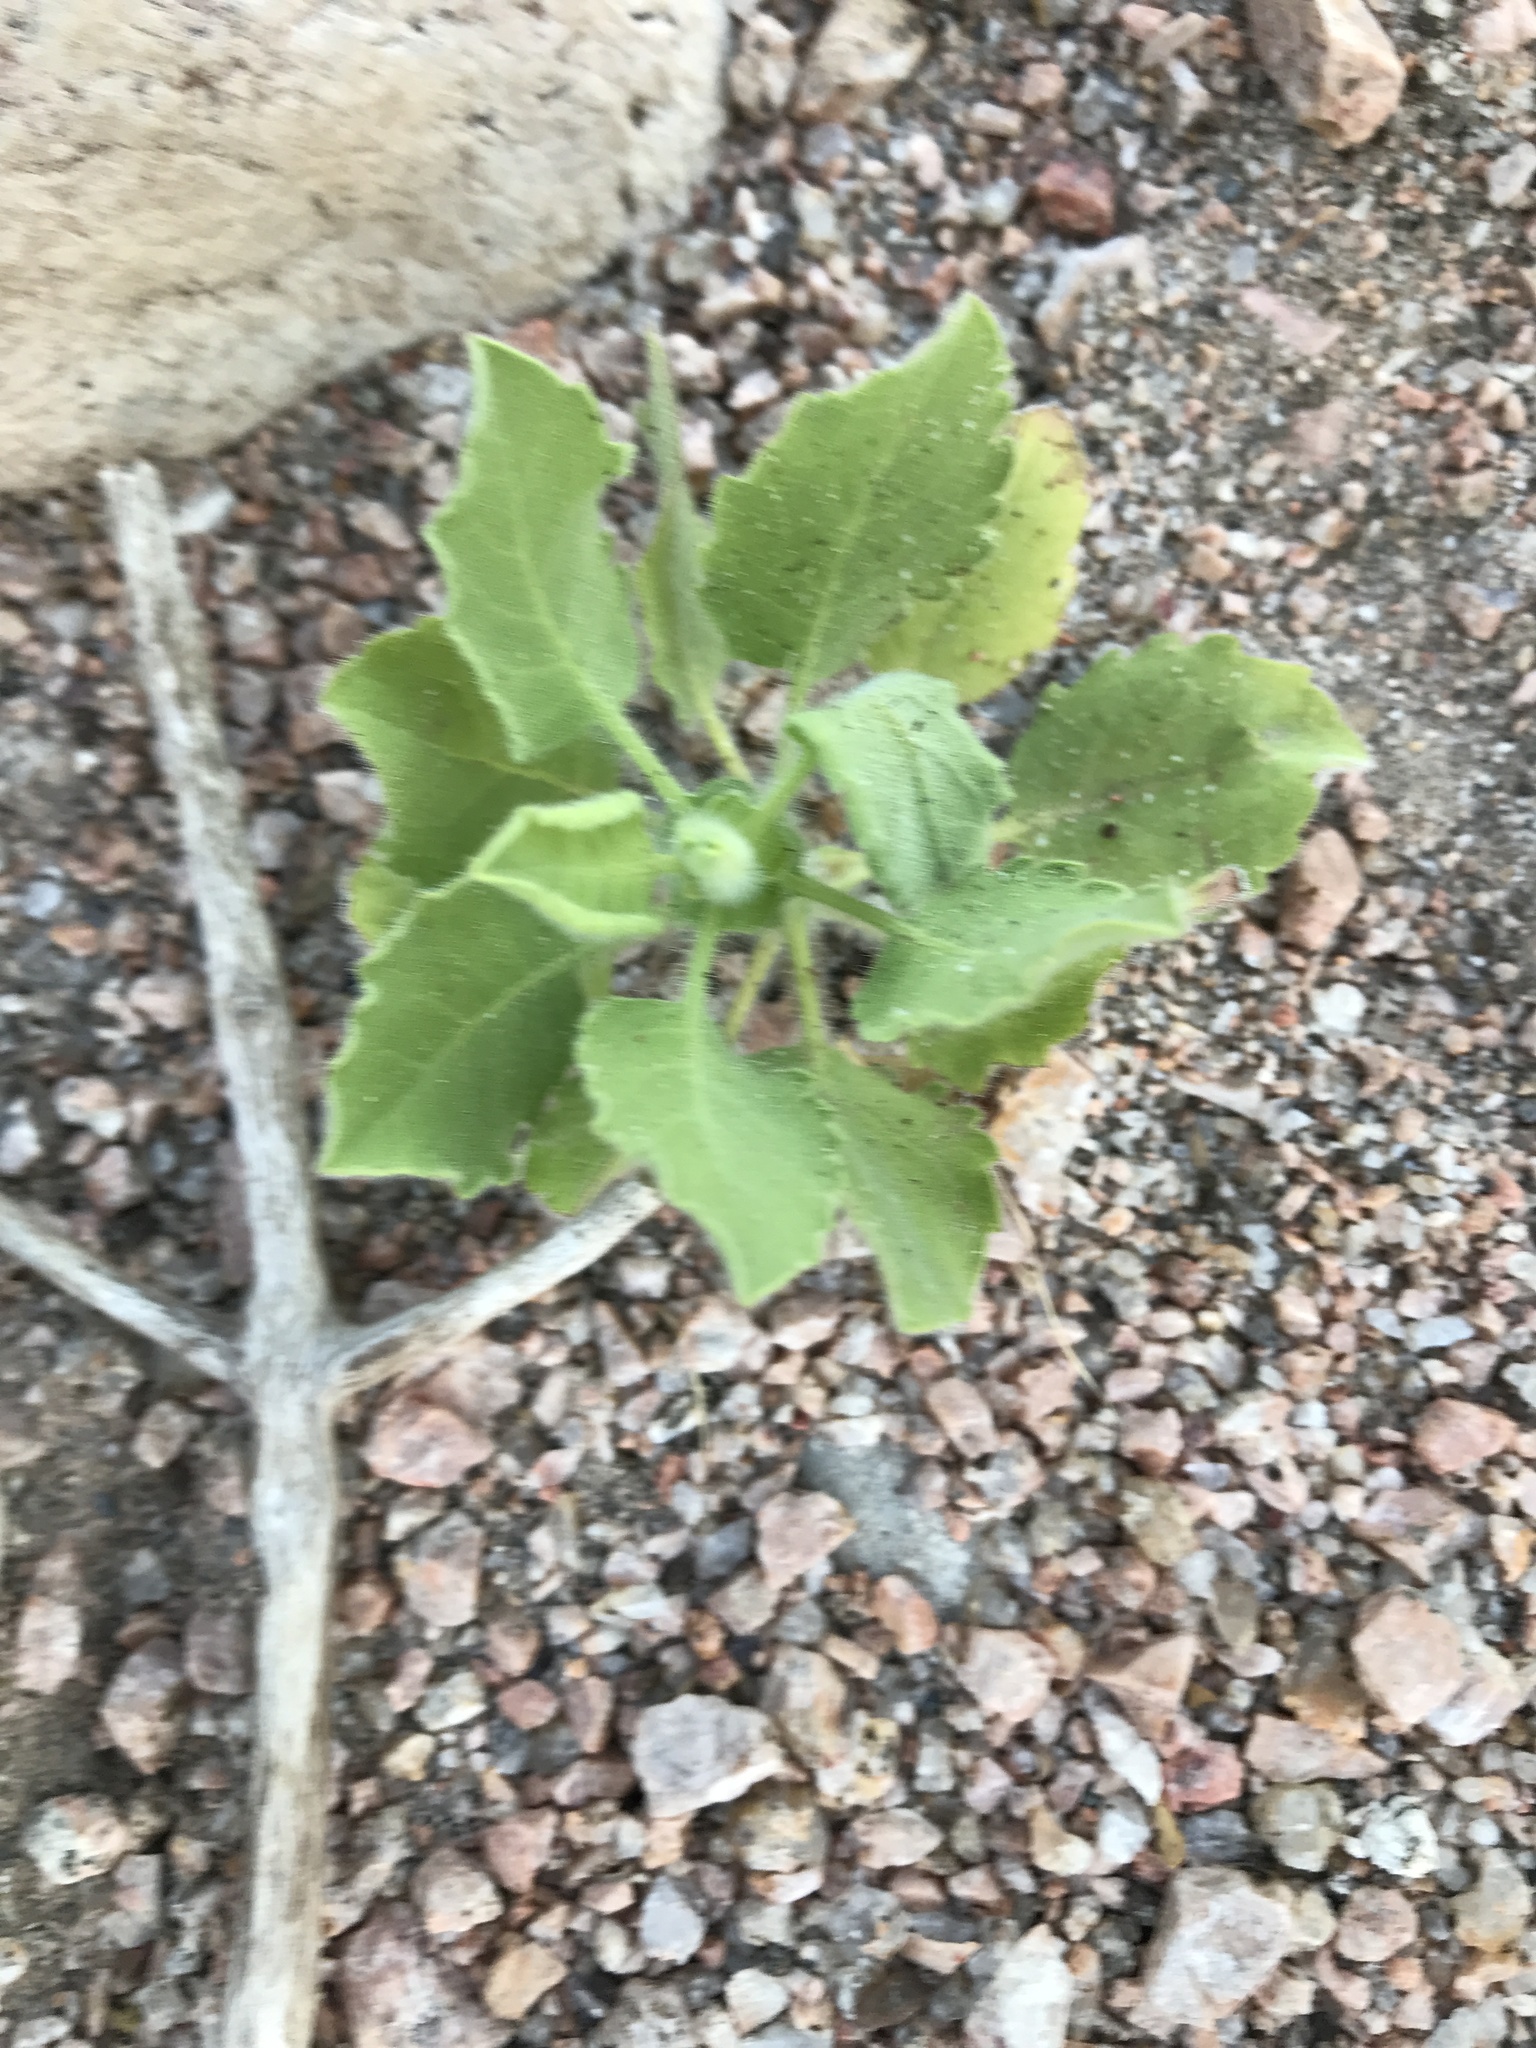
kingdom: Plantae
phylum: Tracheophyta
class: Magnoliopsida
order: Asterales
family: Asteraceae
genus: Heterotheca
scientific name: Heterotheca subaxillaris
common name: Camphorweed
